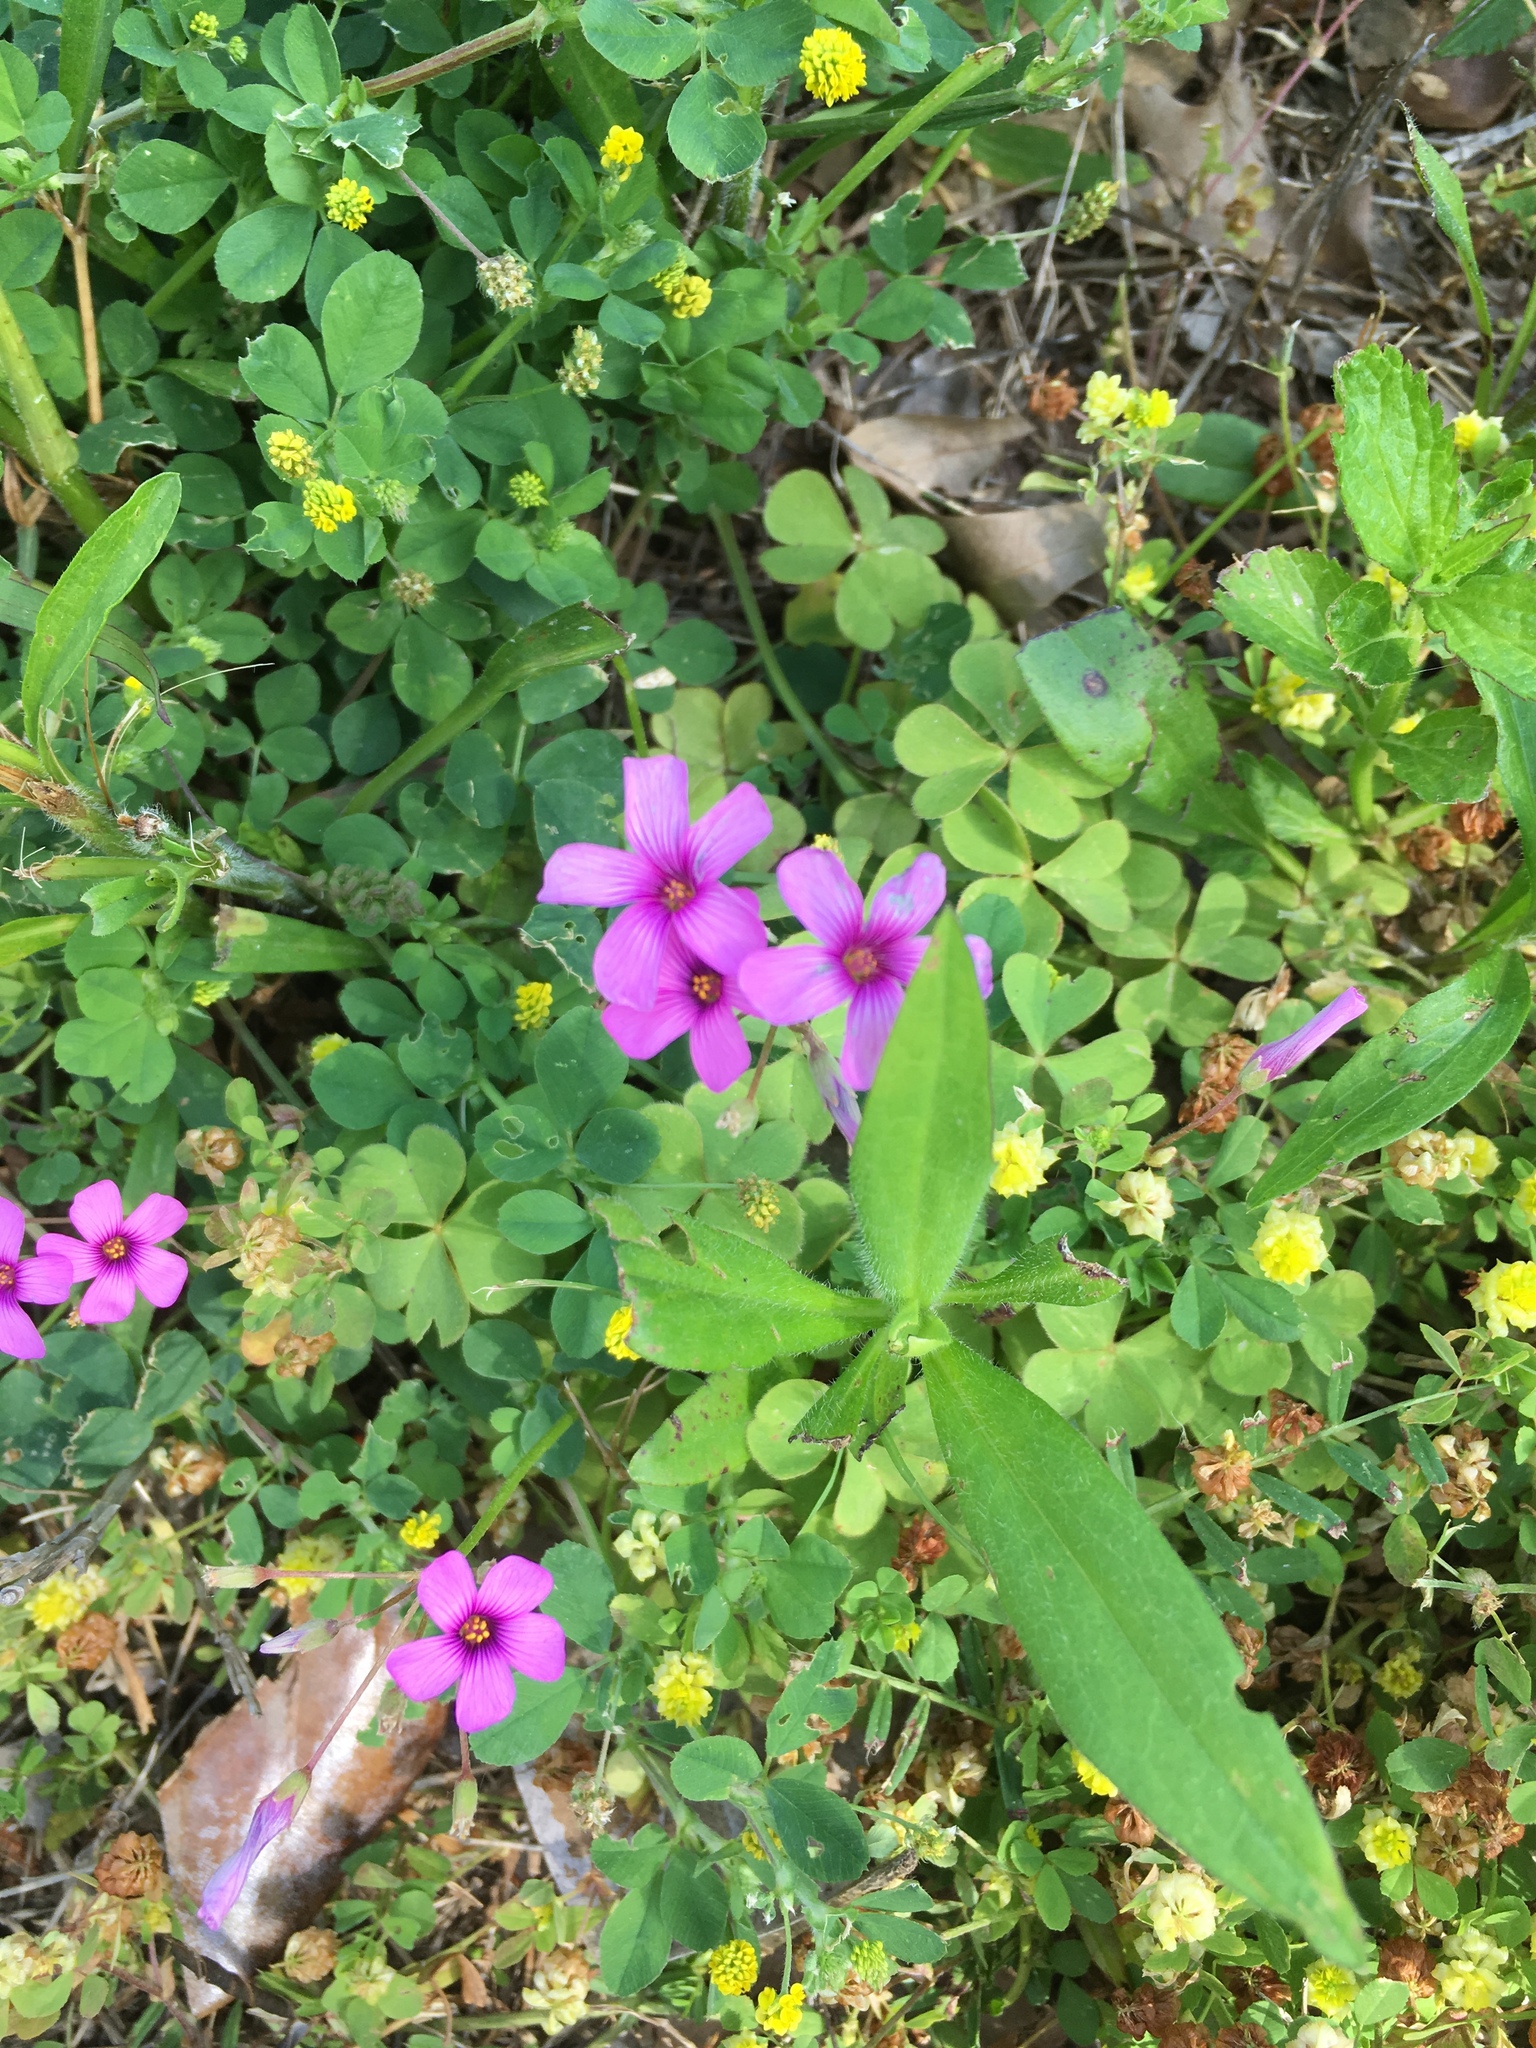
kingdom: Plantae
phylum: Tracheophyta
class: Magnoliopsida
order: Oxalidales
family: Oxalidaceae
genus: Oxalis
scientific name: Oxalis articulata
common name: Pink-sorrel
